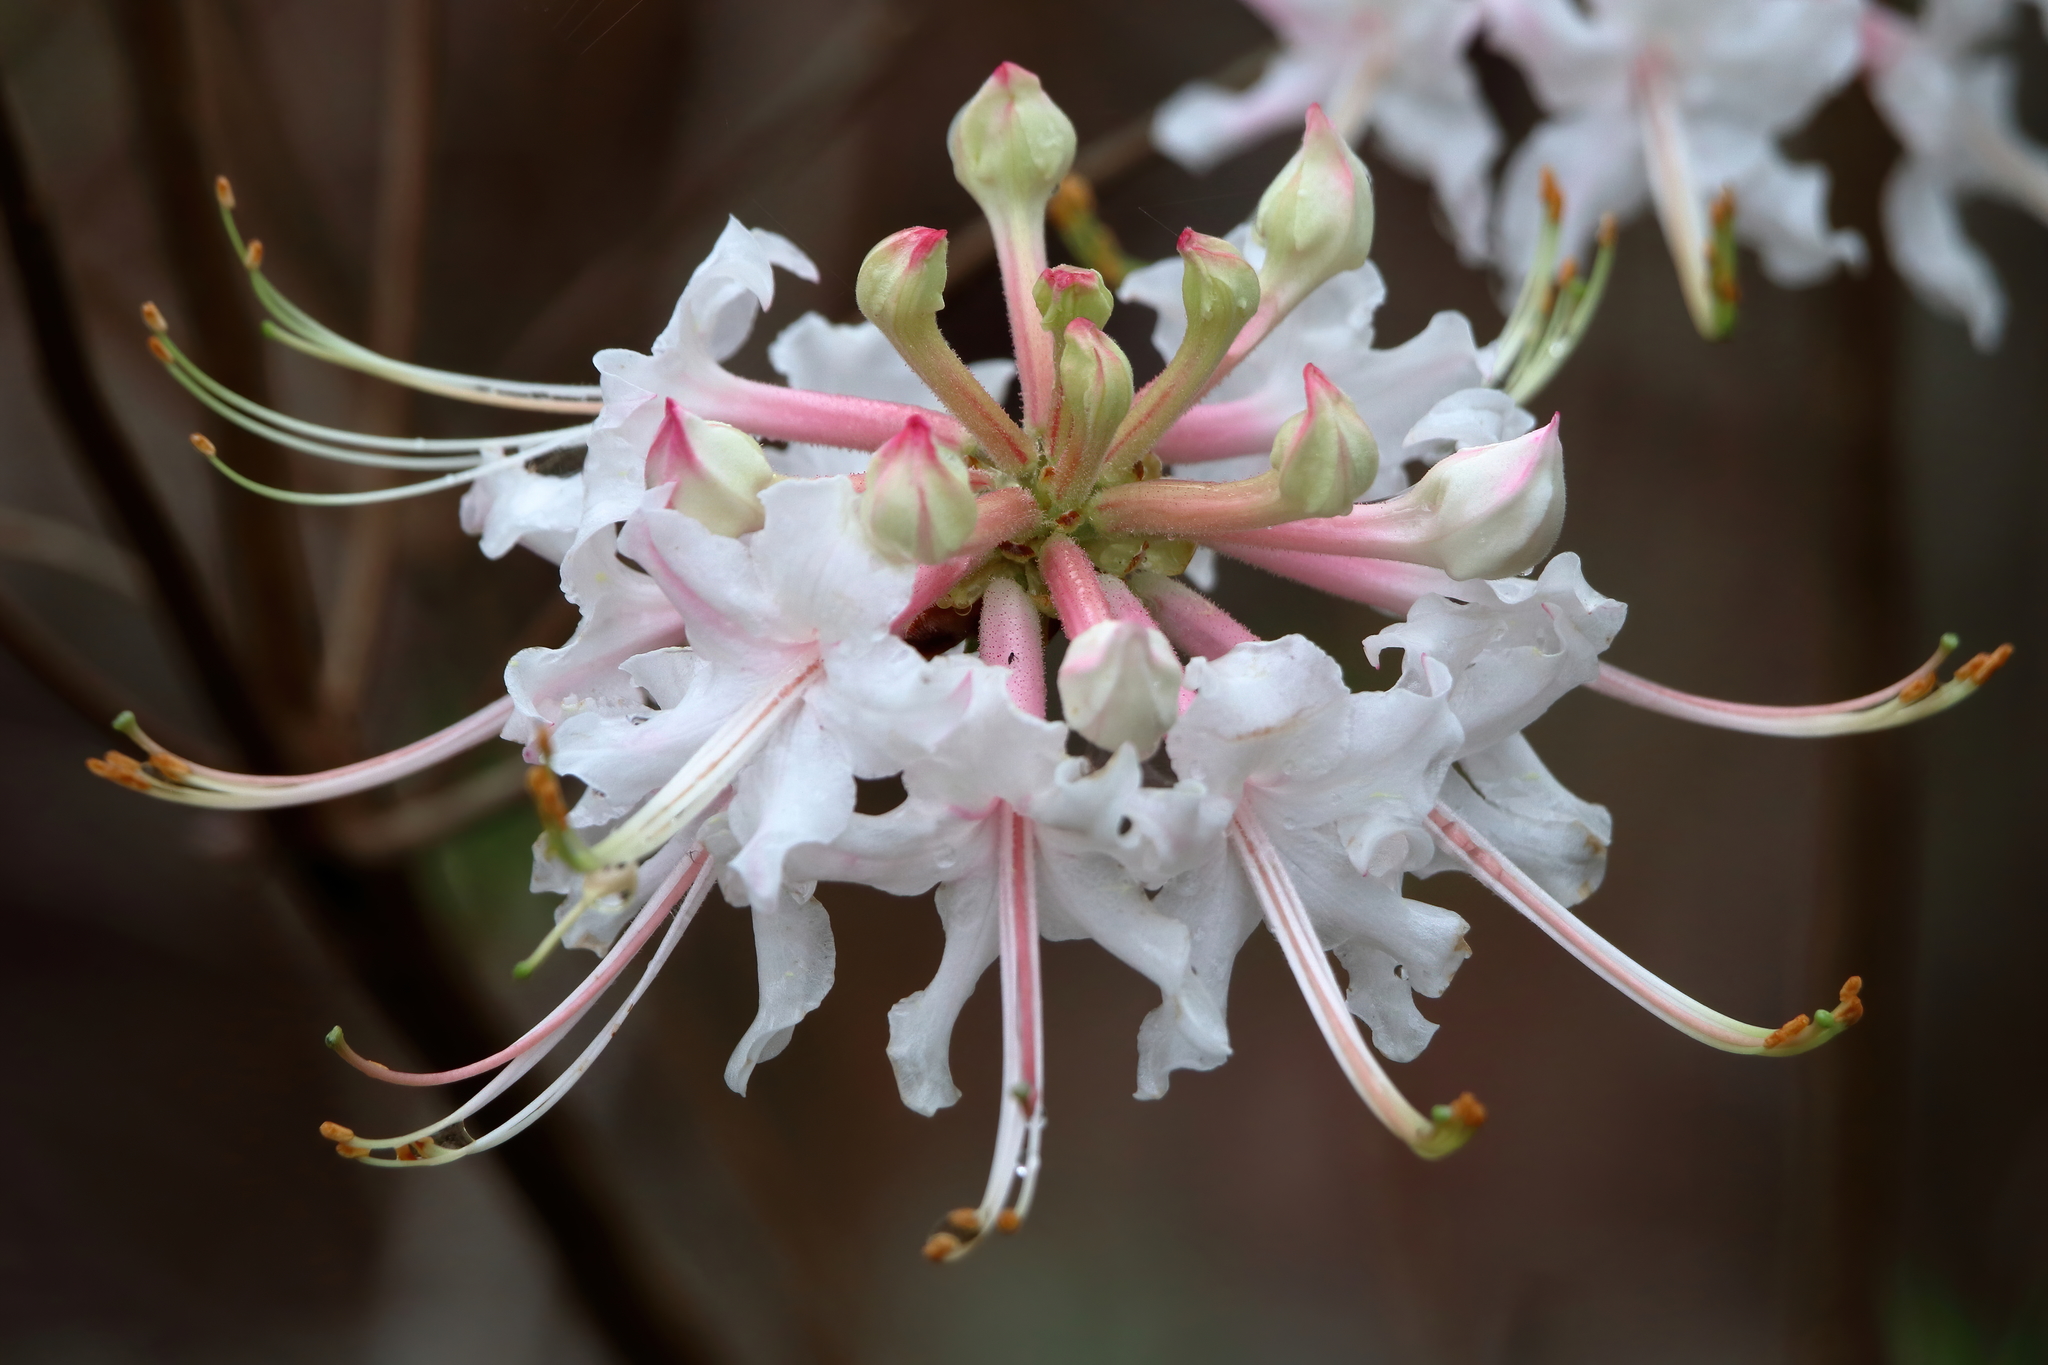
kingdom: Plantae
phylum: Tracheophyta
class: Magnoliopsida
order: Ericales
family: Ericaceae
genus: Rhododendron
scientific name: Rhododendron canescens
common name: Mountain azalea
